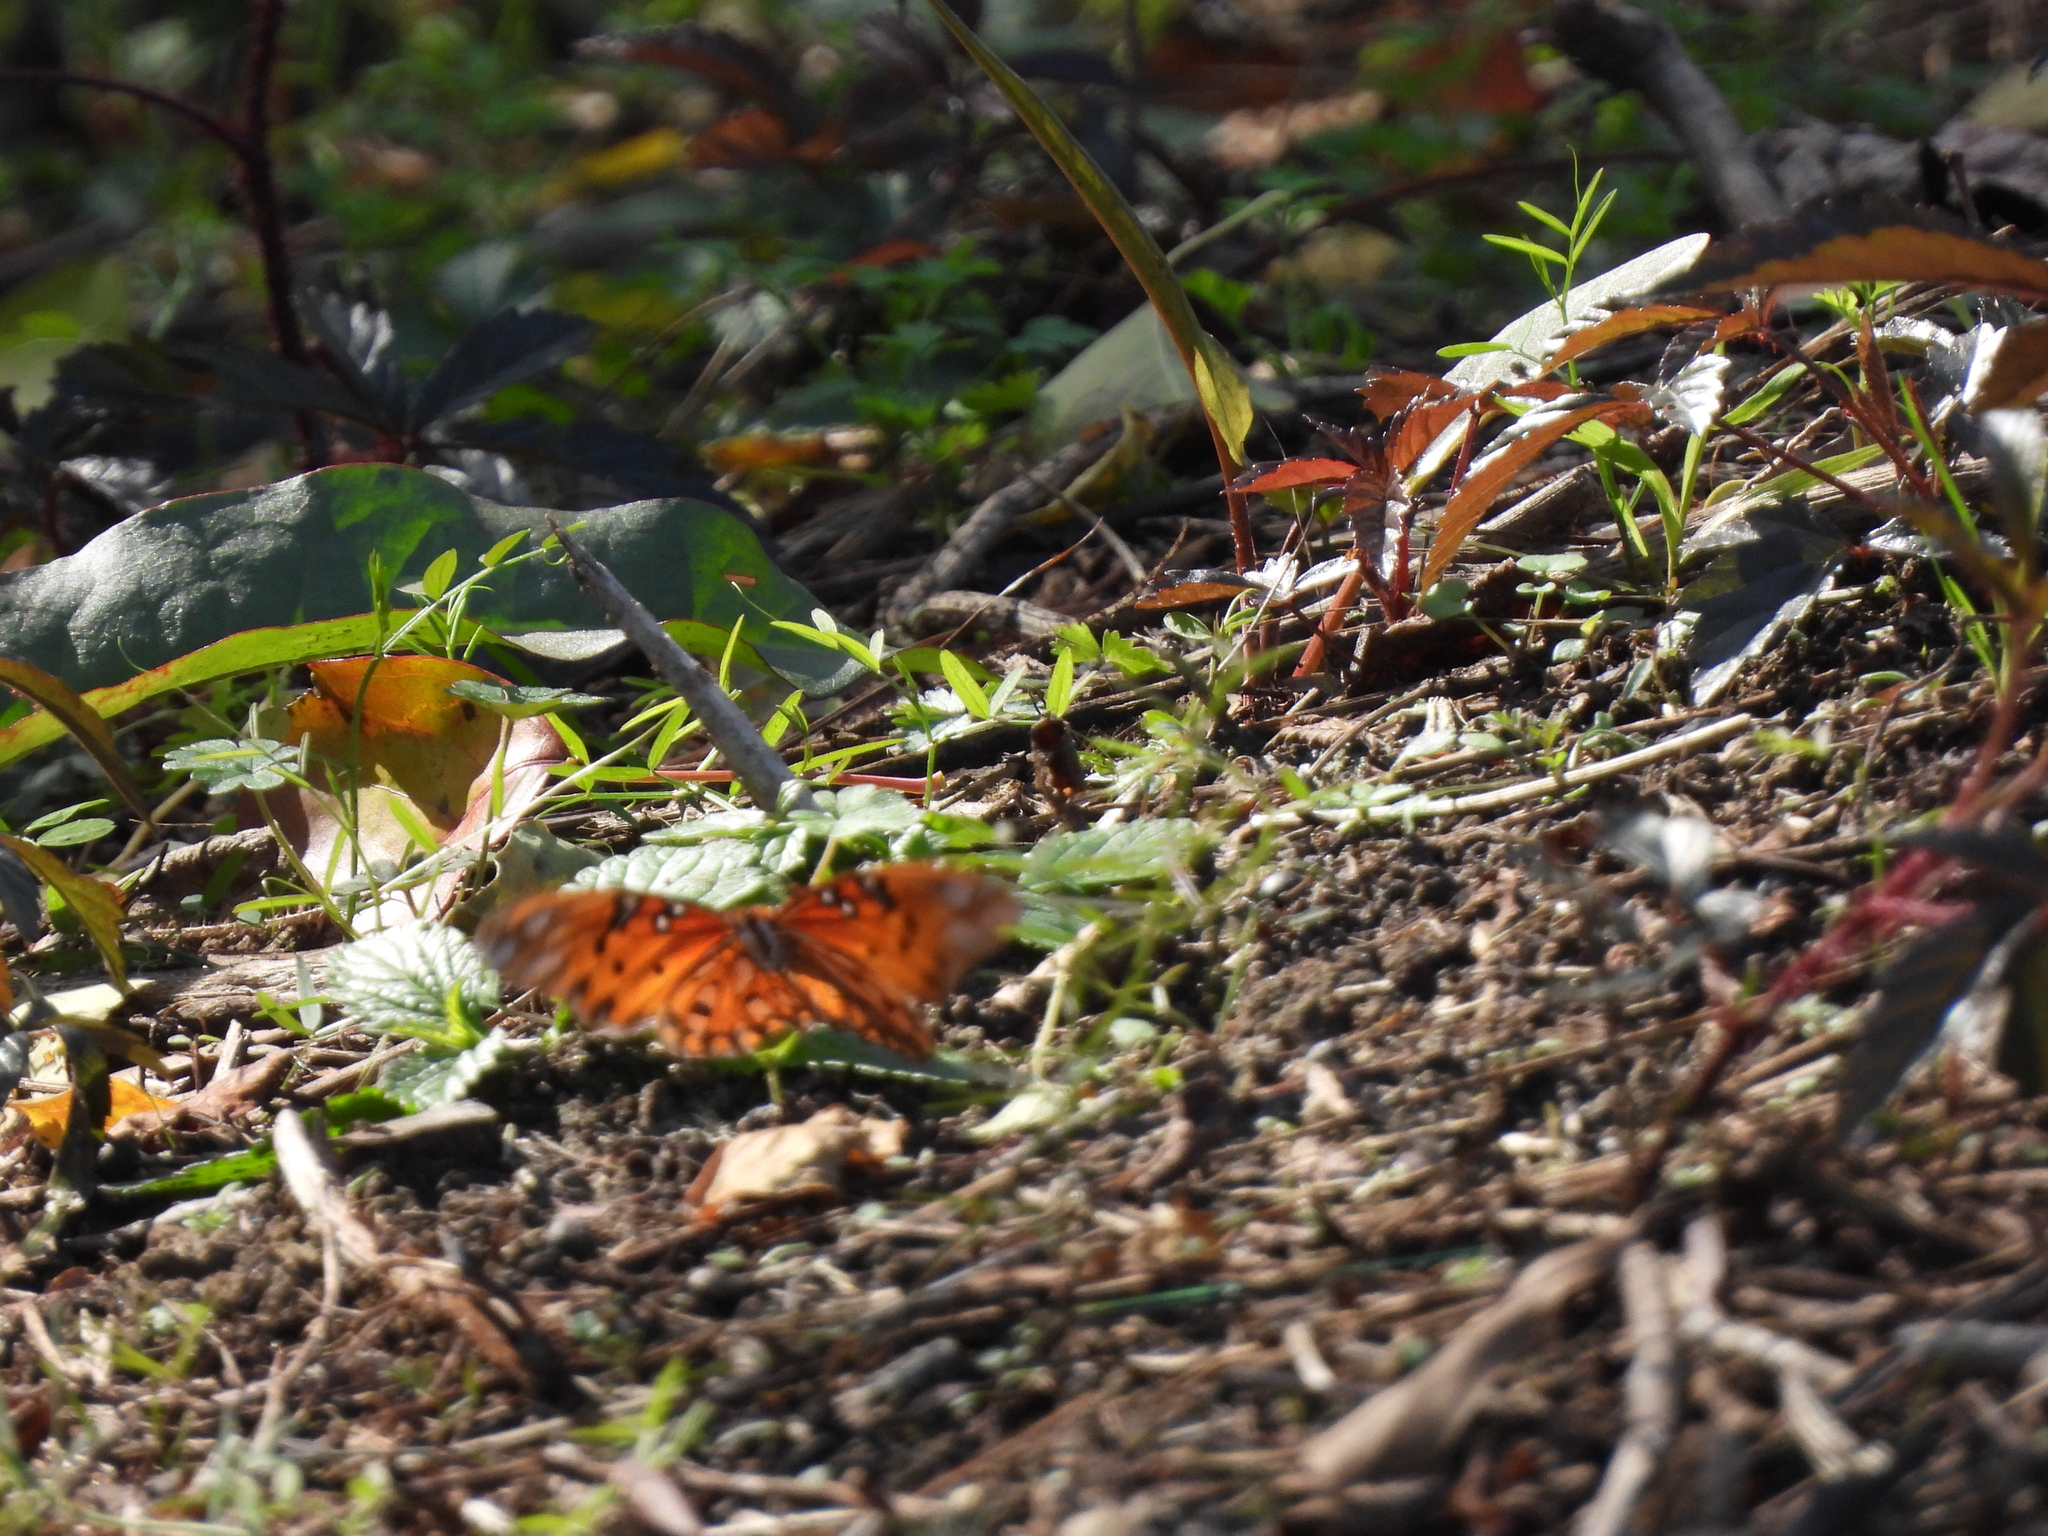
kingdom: Animalia
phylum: Arthropoda
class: Insecta
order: Lepidoptera
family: Nymphalidae
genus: Dione
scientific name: Dione vanillae
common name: Gulf fritillary
